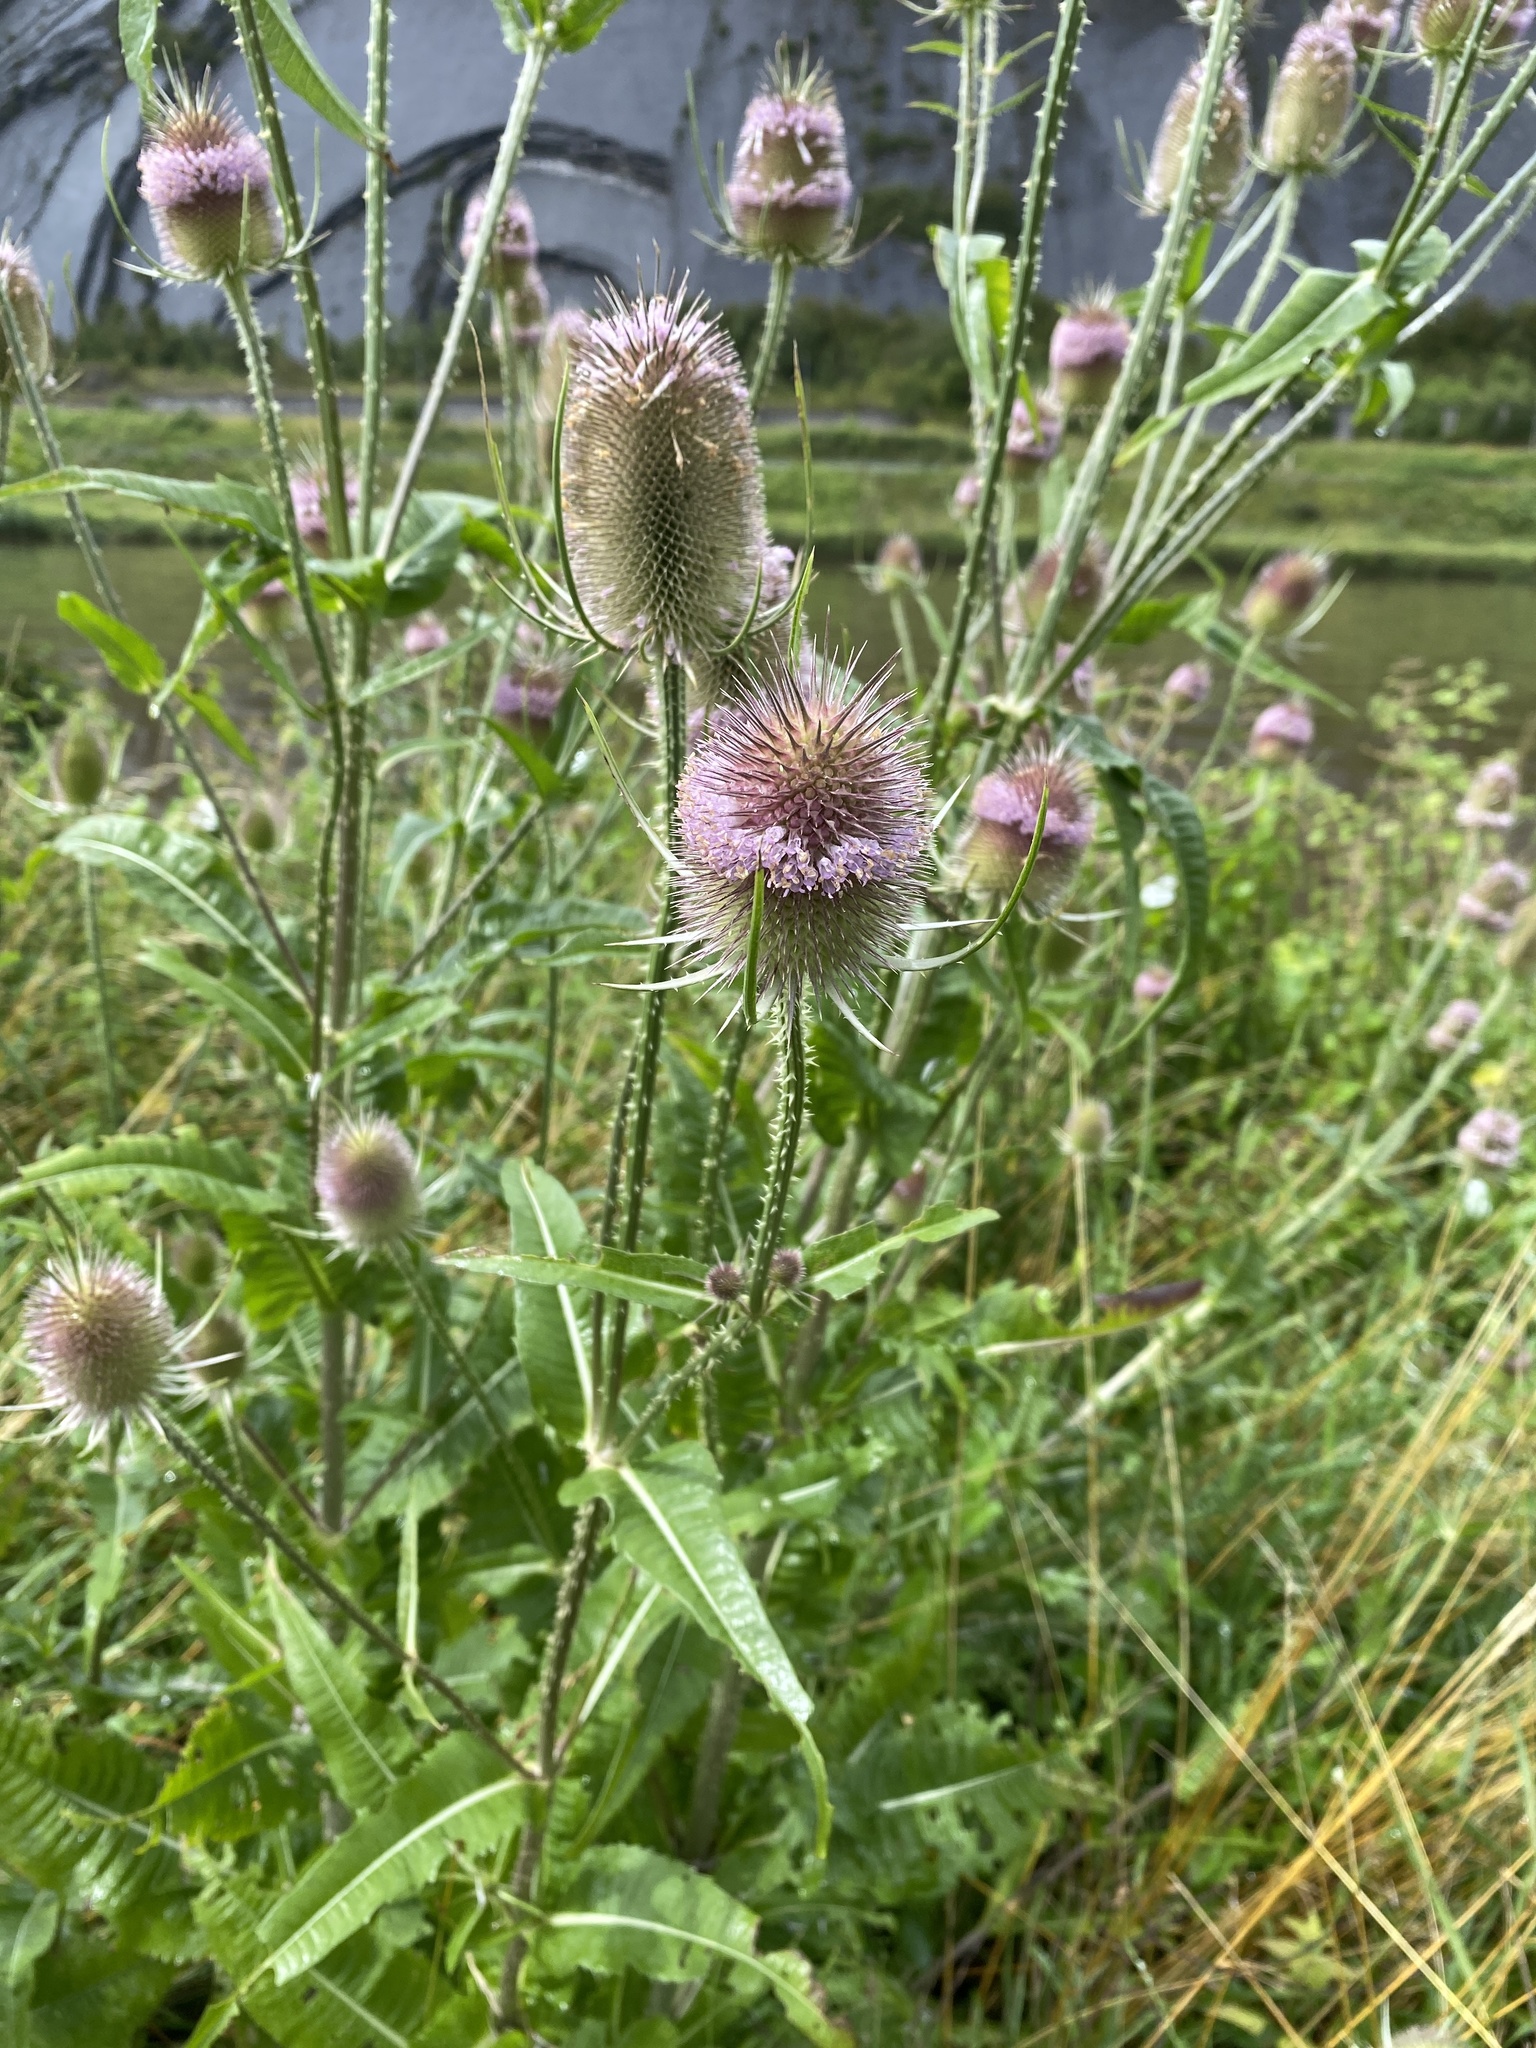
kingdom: Plantae
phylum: Tracheophyta
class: Magnoliopsida
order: Dipsacales
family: Caprifoliaceae
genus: Dipsacus
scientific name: Dipsacus fullonum
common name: Teasel
